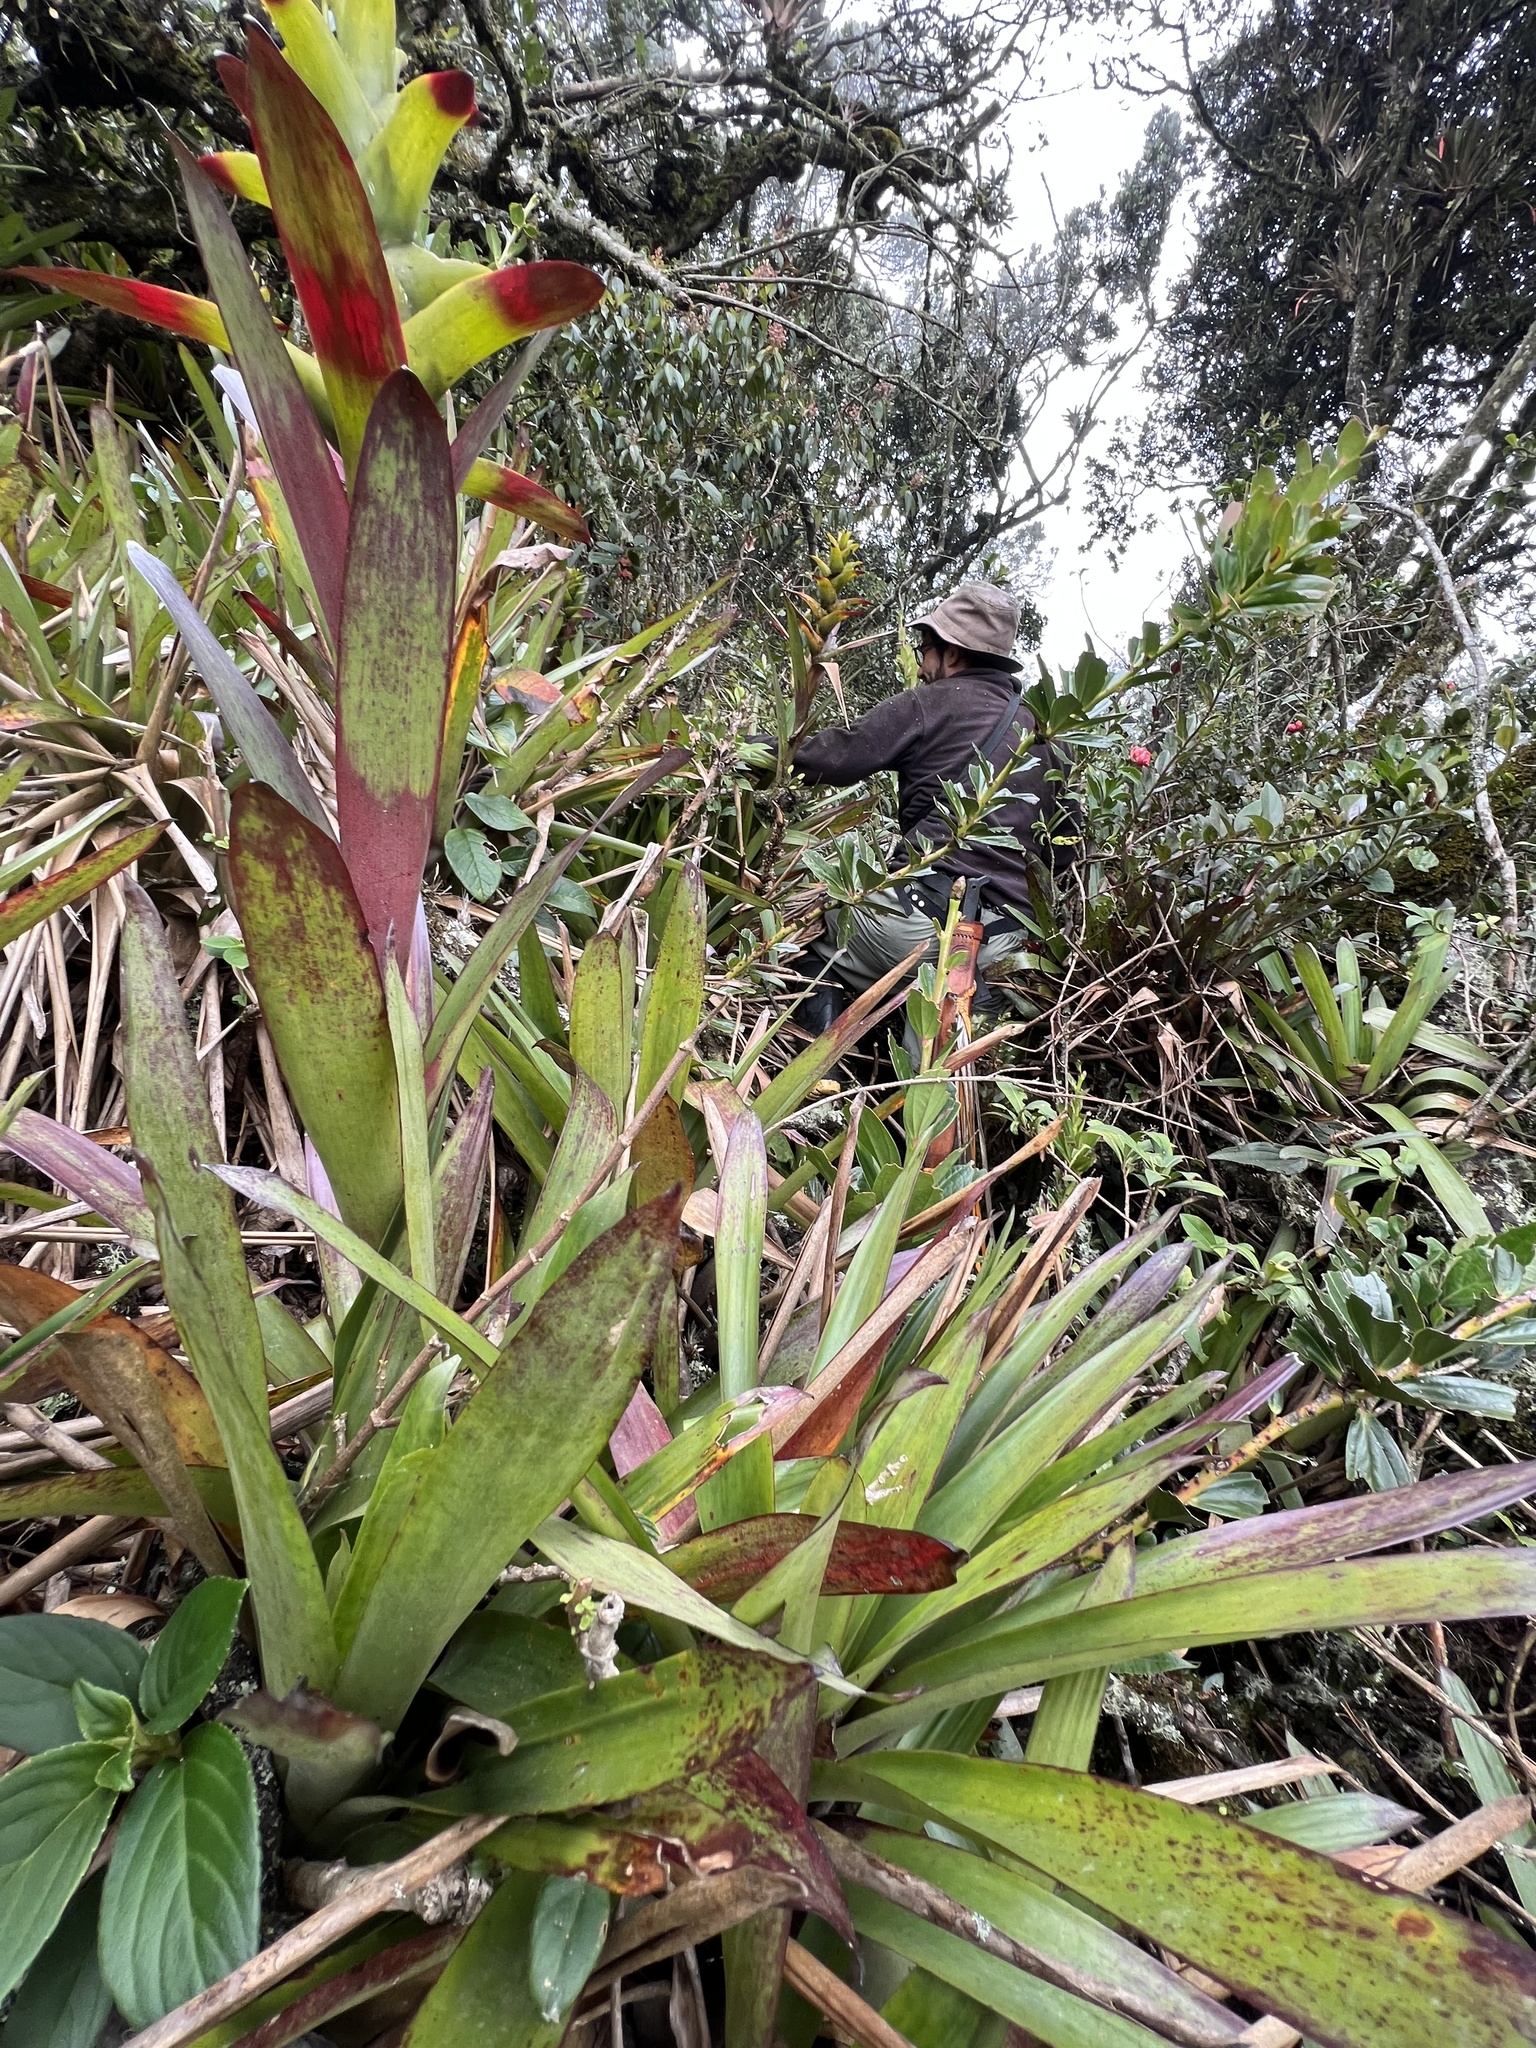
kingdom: Plantae
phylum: Tracheophyta
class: Liliopsida
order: Poales
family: Bromeliaceae
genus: Guzmania
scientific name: Guzmania squarrosa
